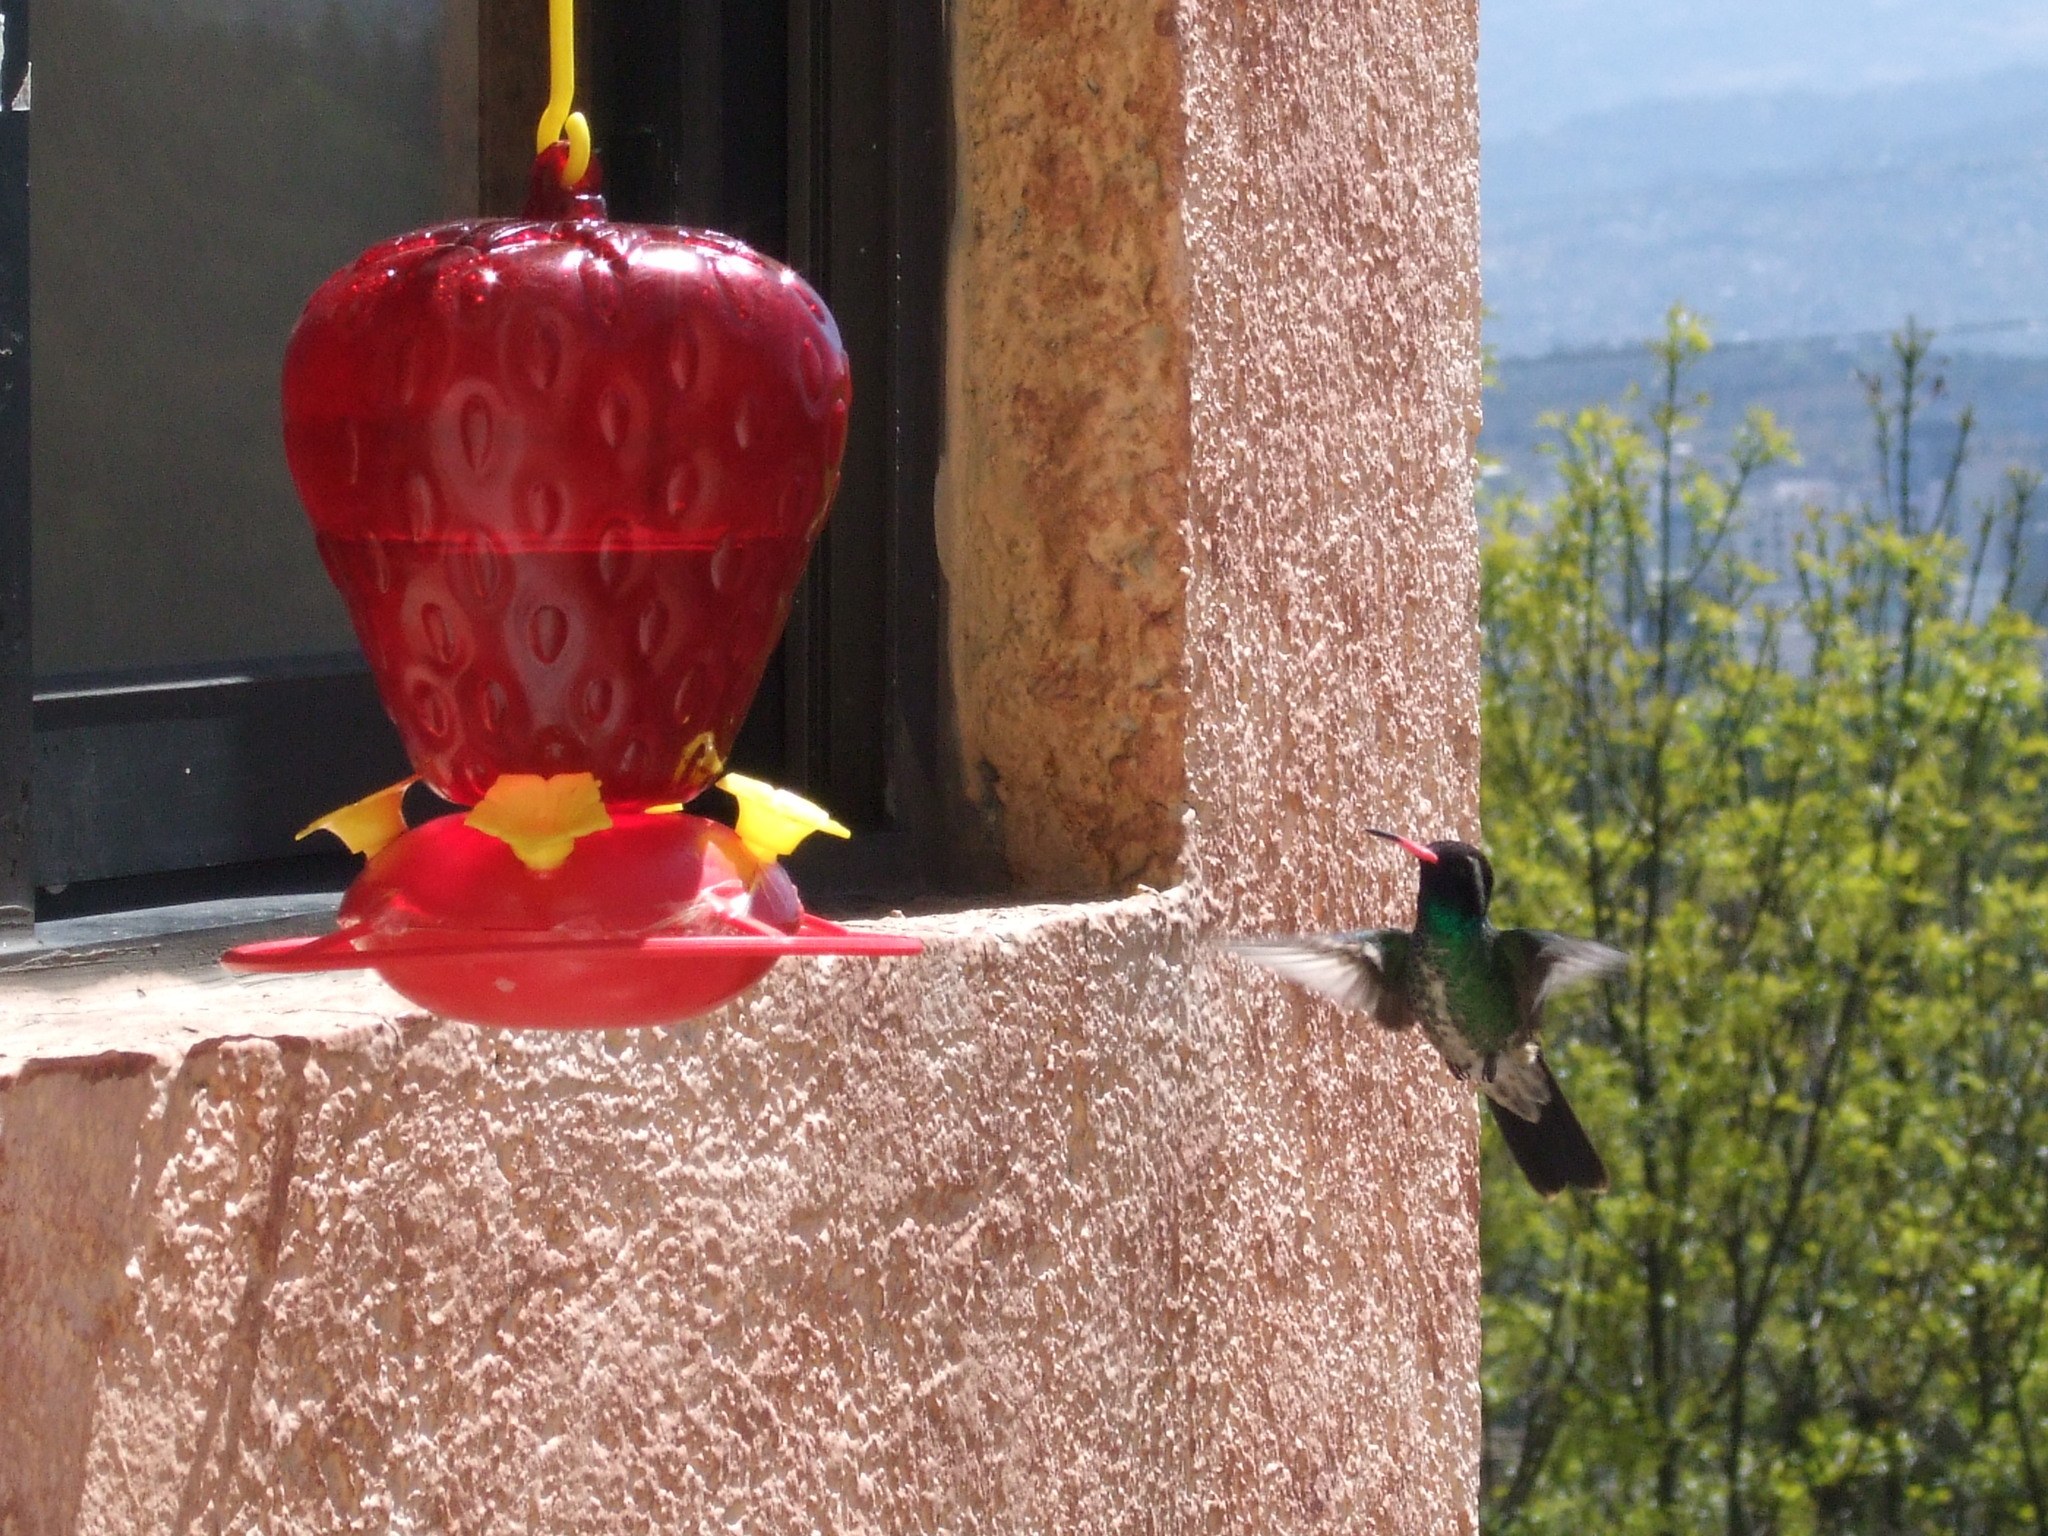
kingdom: Animalia
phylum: Chordata
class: Aves
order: Apodiformes
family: Trochilidae
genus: Basilinna
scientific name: Basilinna leucotis
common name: White-eared hummingbird
